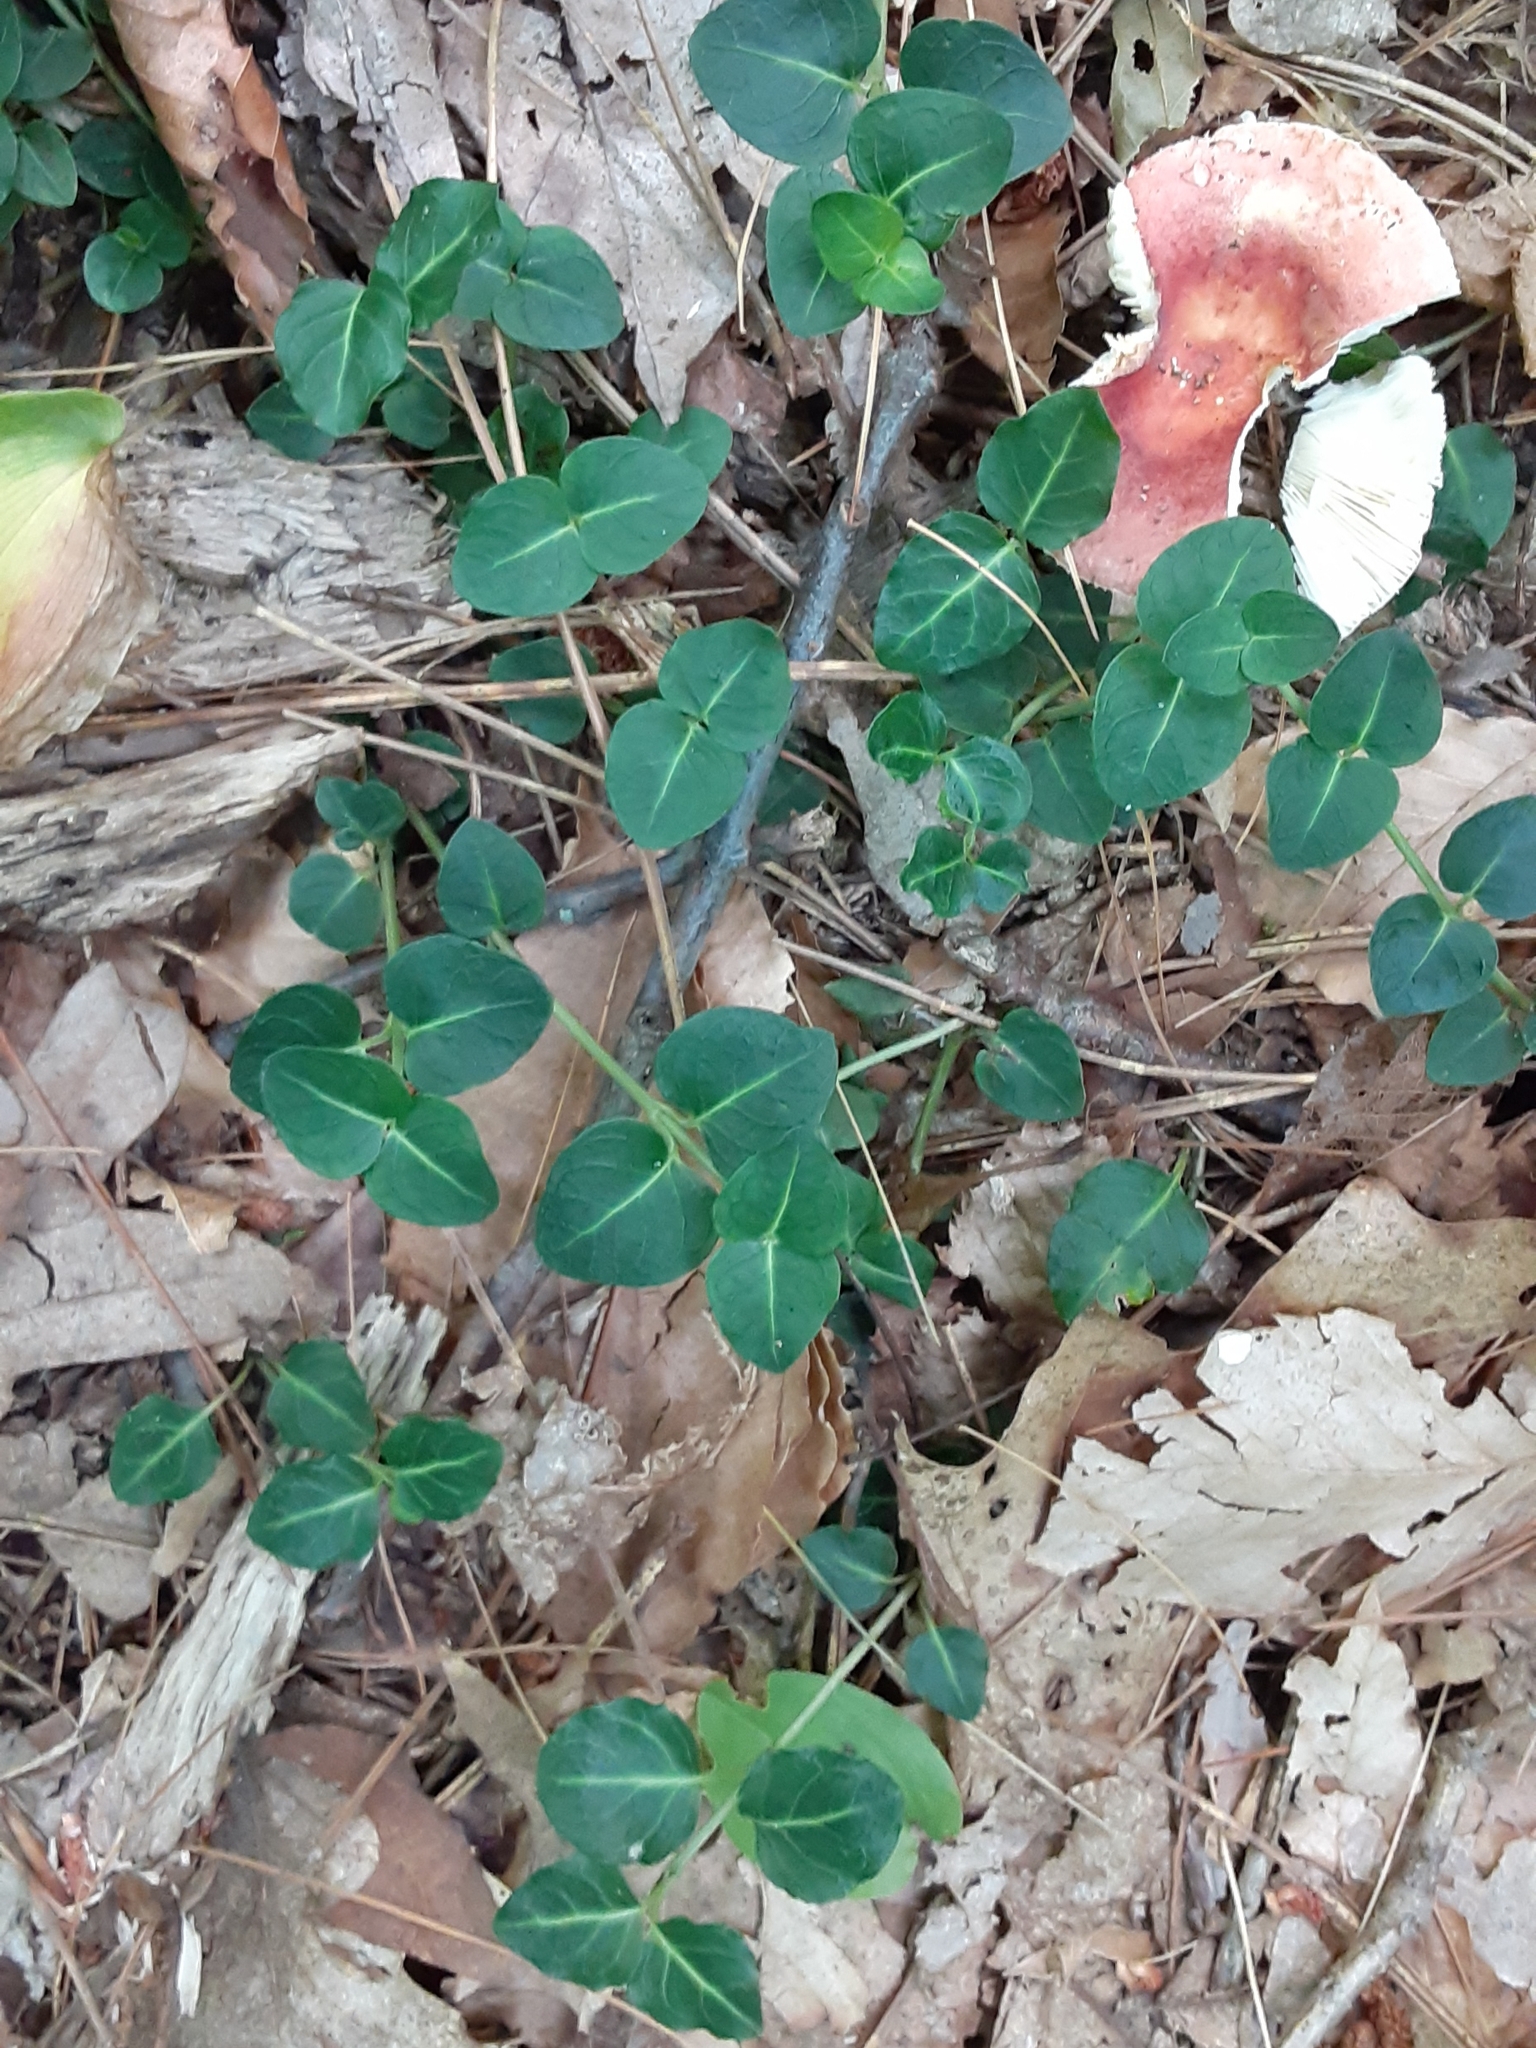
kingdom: Plantae
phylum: Tracheophyta
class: Magnoliopsida
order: Gentianales
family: Rubiaceae
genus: Mitchella
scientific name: Mitchella repens
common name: Partridge-berry
